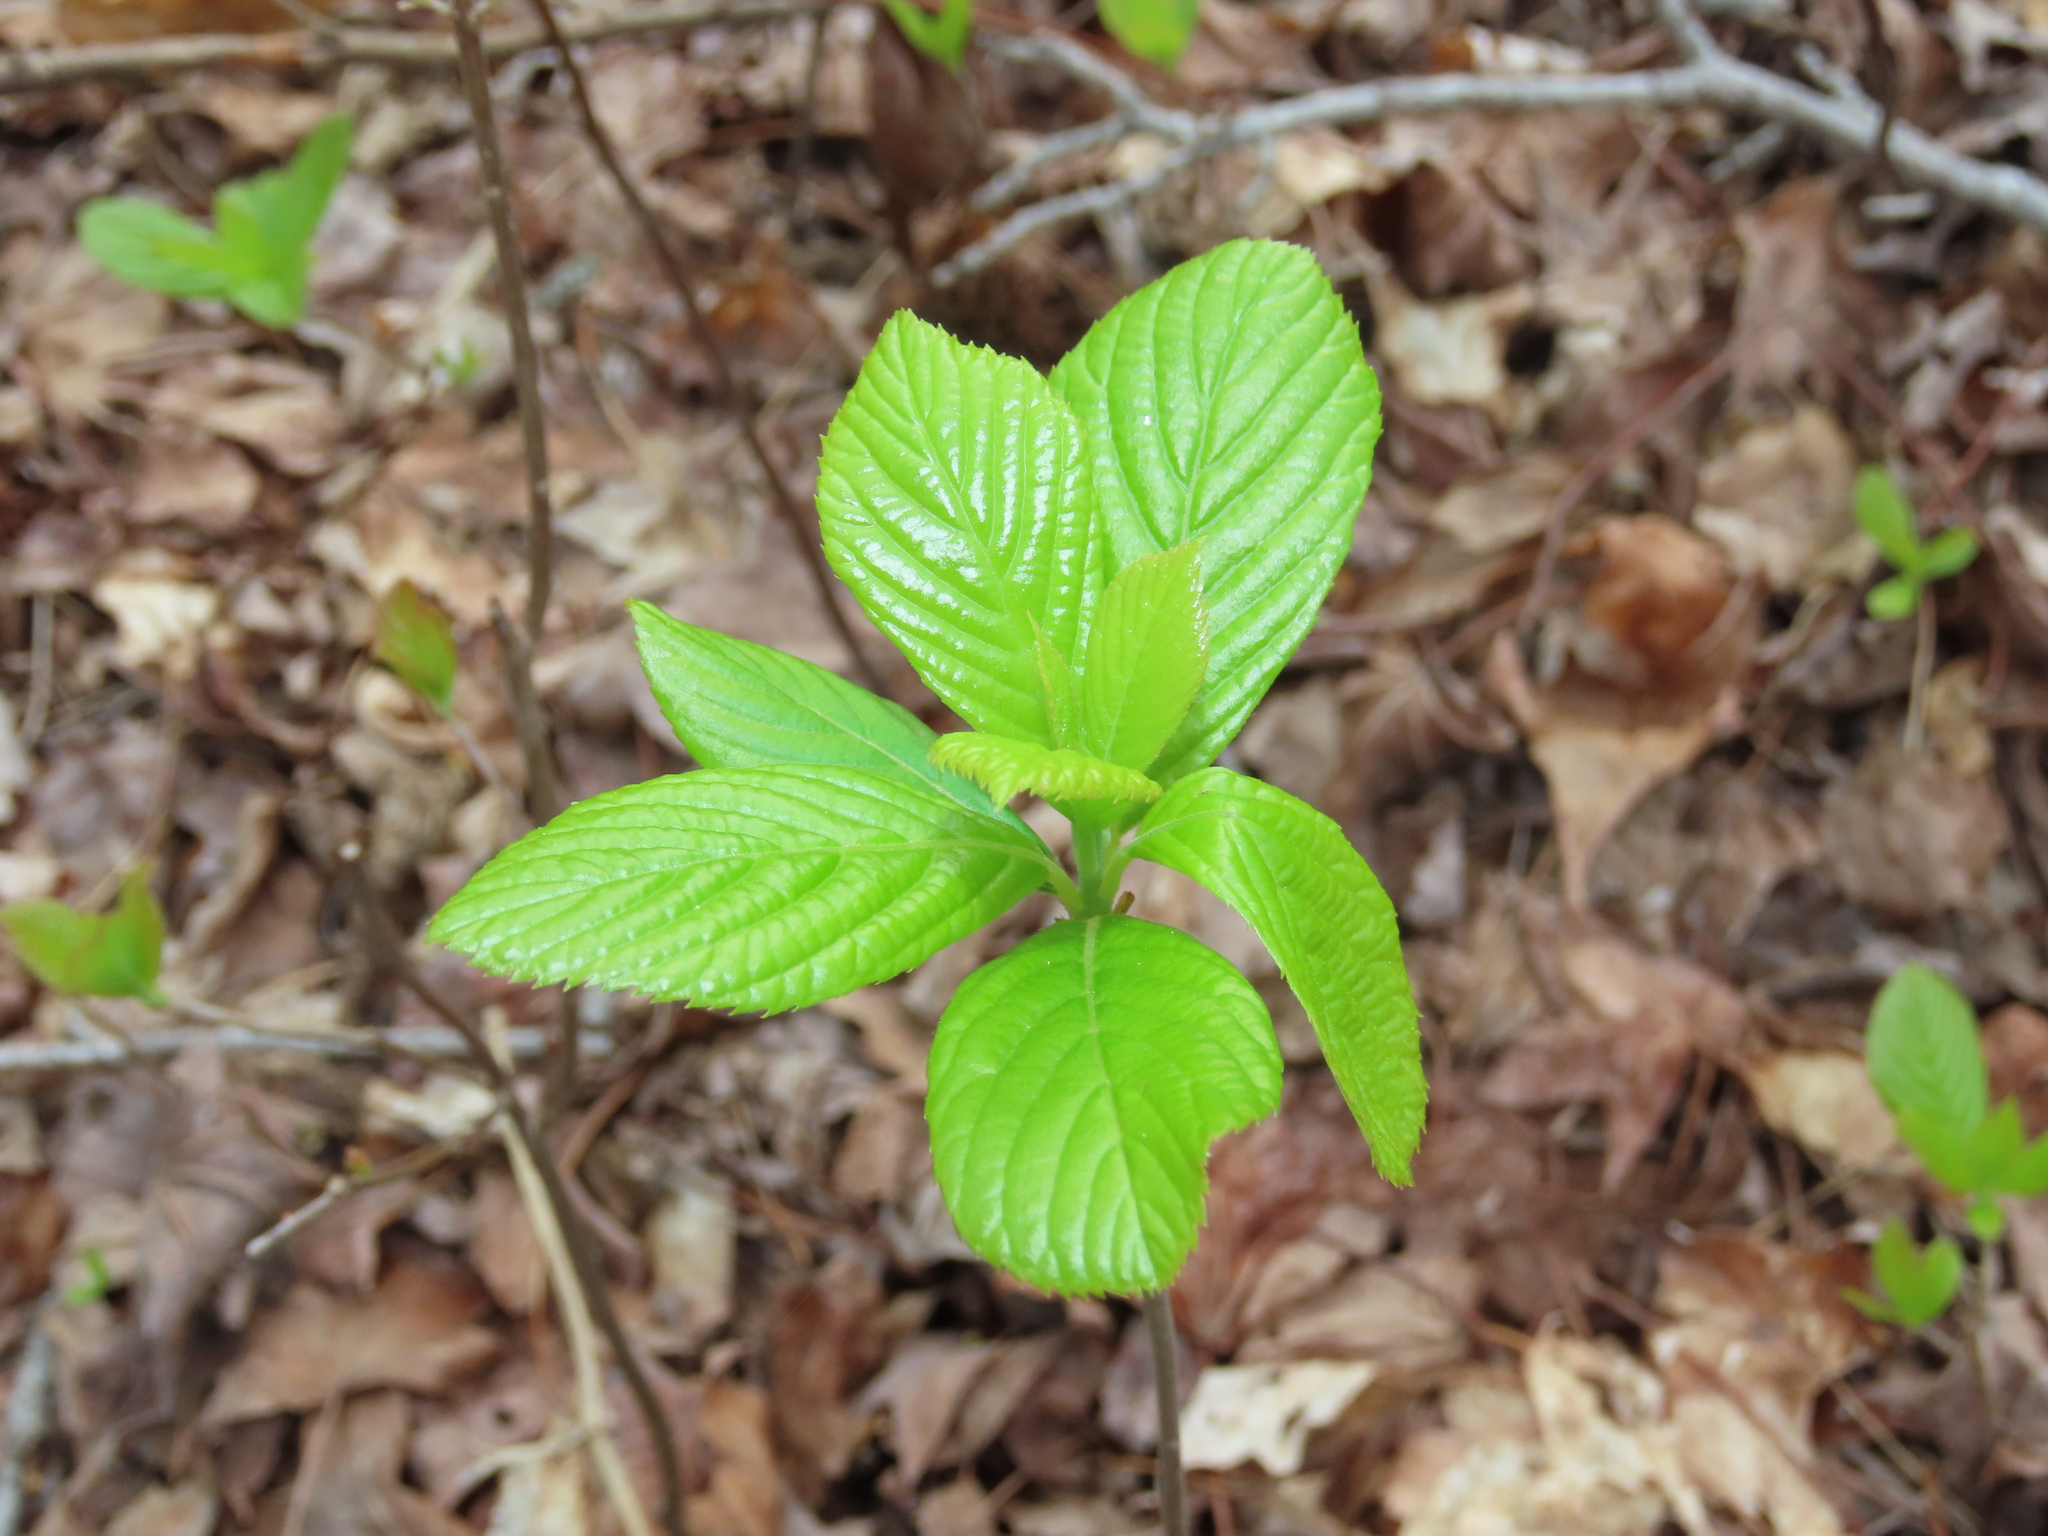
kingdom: Plantae
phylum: Tracheophyta
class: Magnoliopsida
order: Ericales
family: Clethraceae
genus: Clethra
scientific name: Clethra alnifolia
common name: Sweet pepperbush
